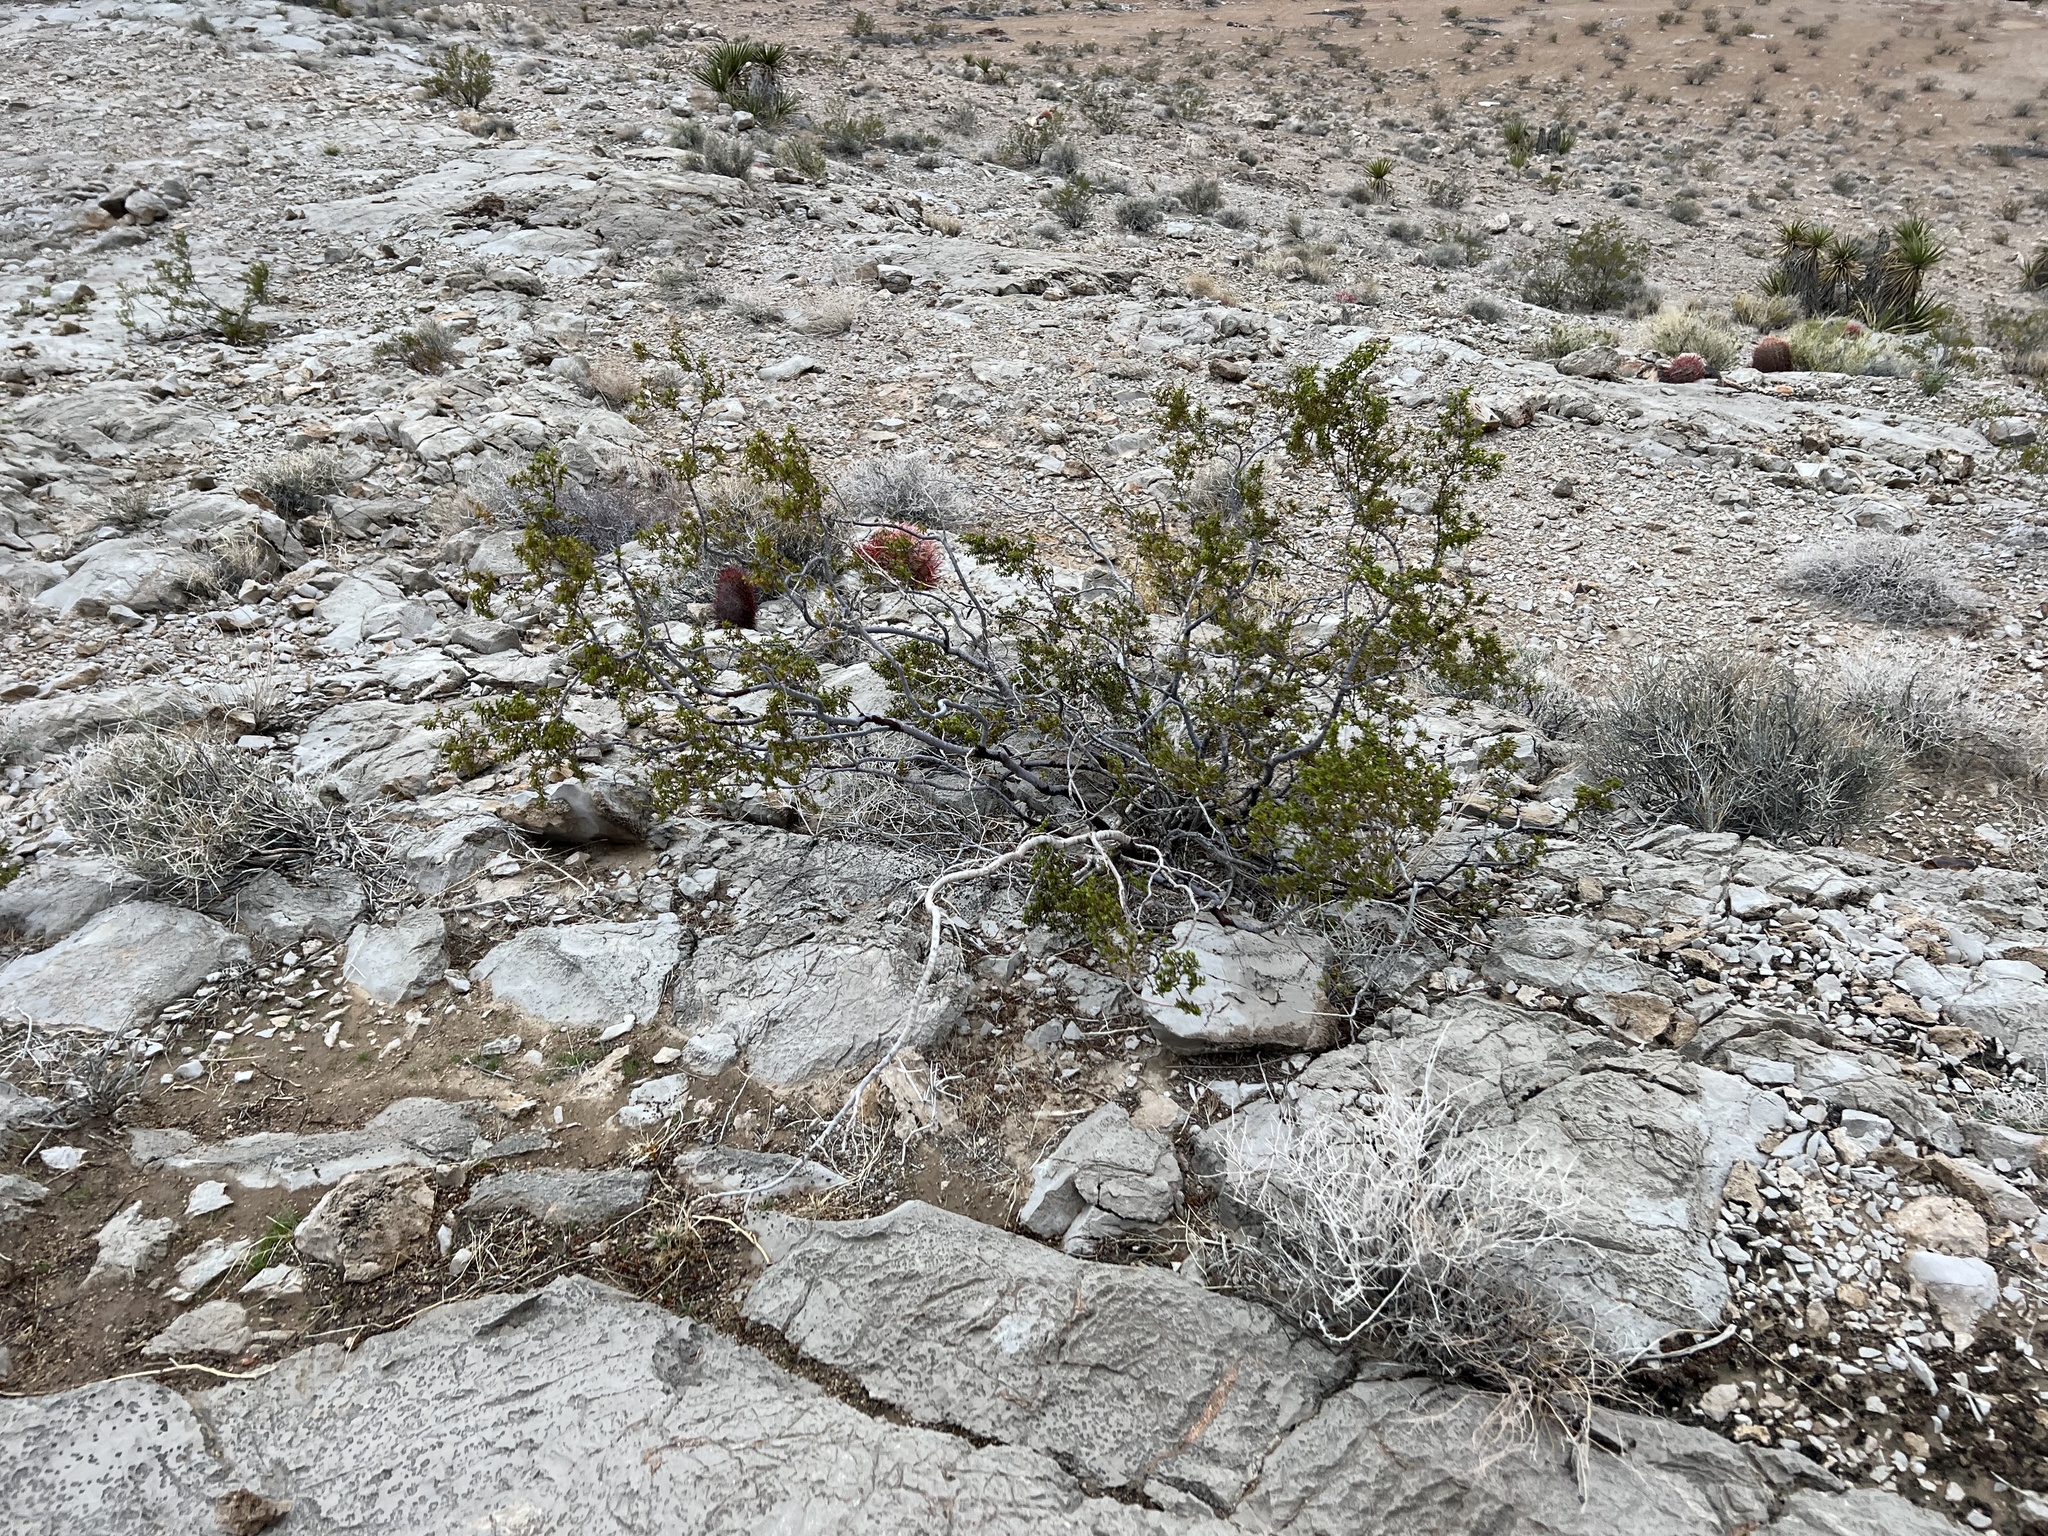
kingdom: Plantae
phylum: Tracheophyta
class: Magnoliopsida
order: Zygophyllales
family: Zygophyllaceae
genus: Larrea
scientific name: Larrea tridentata
